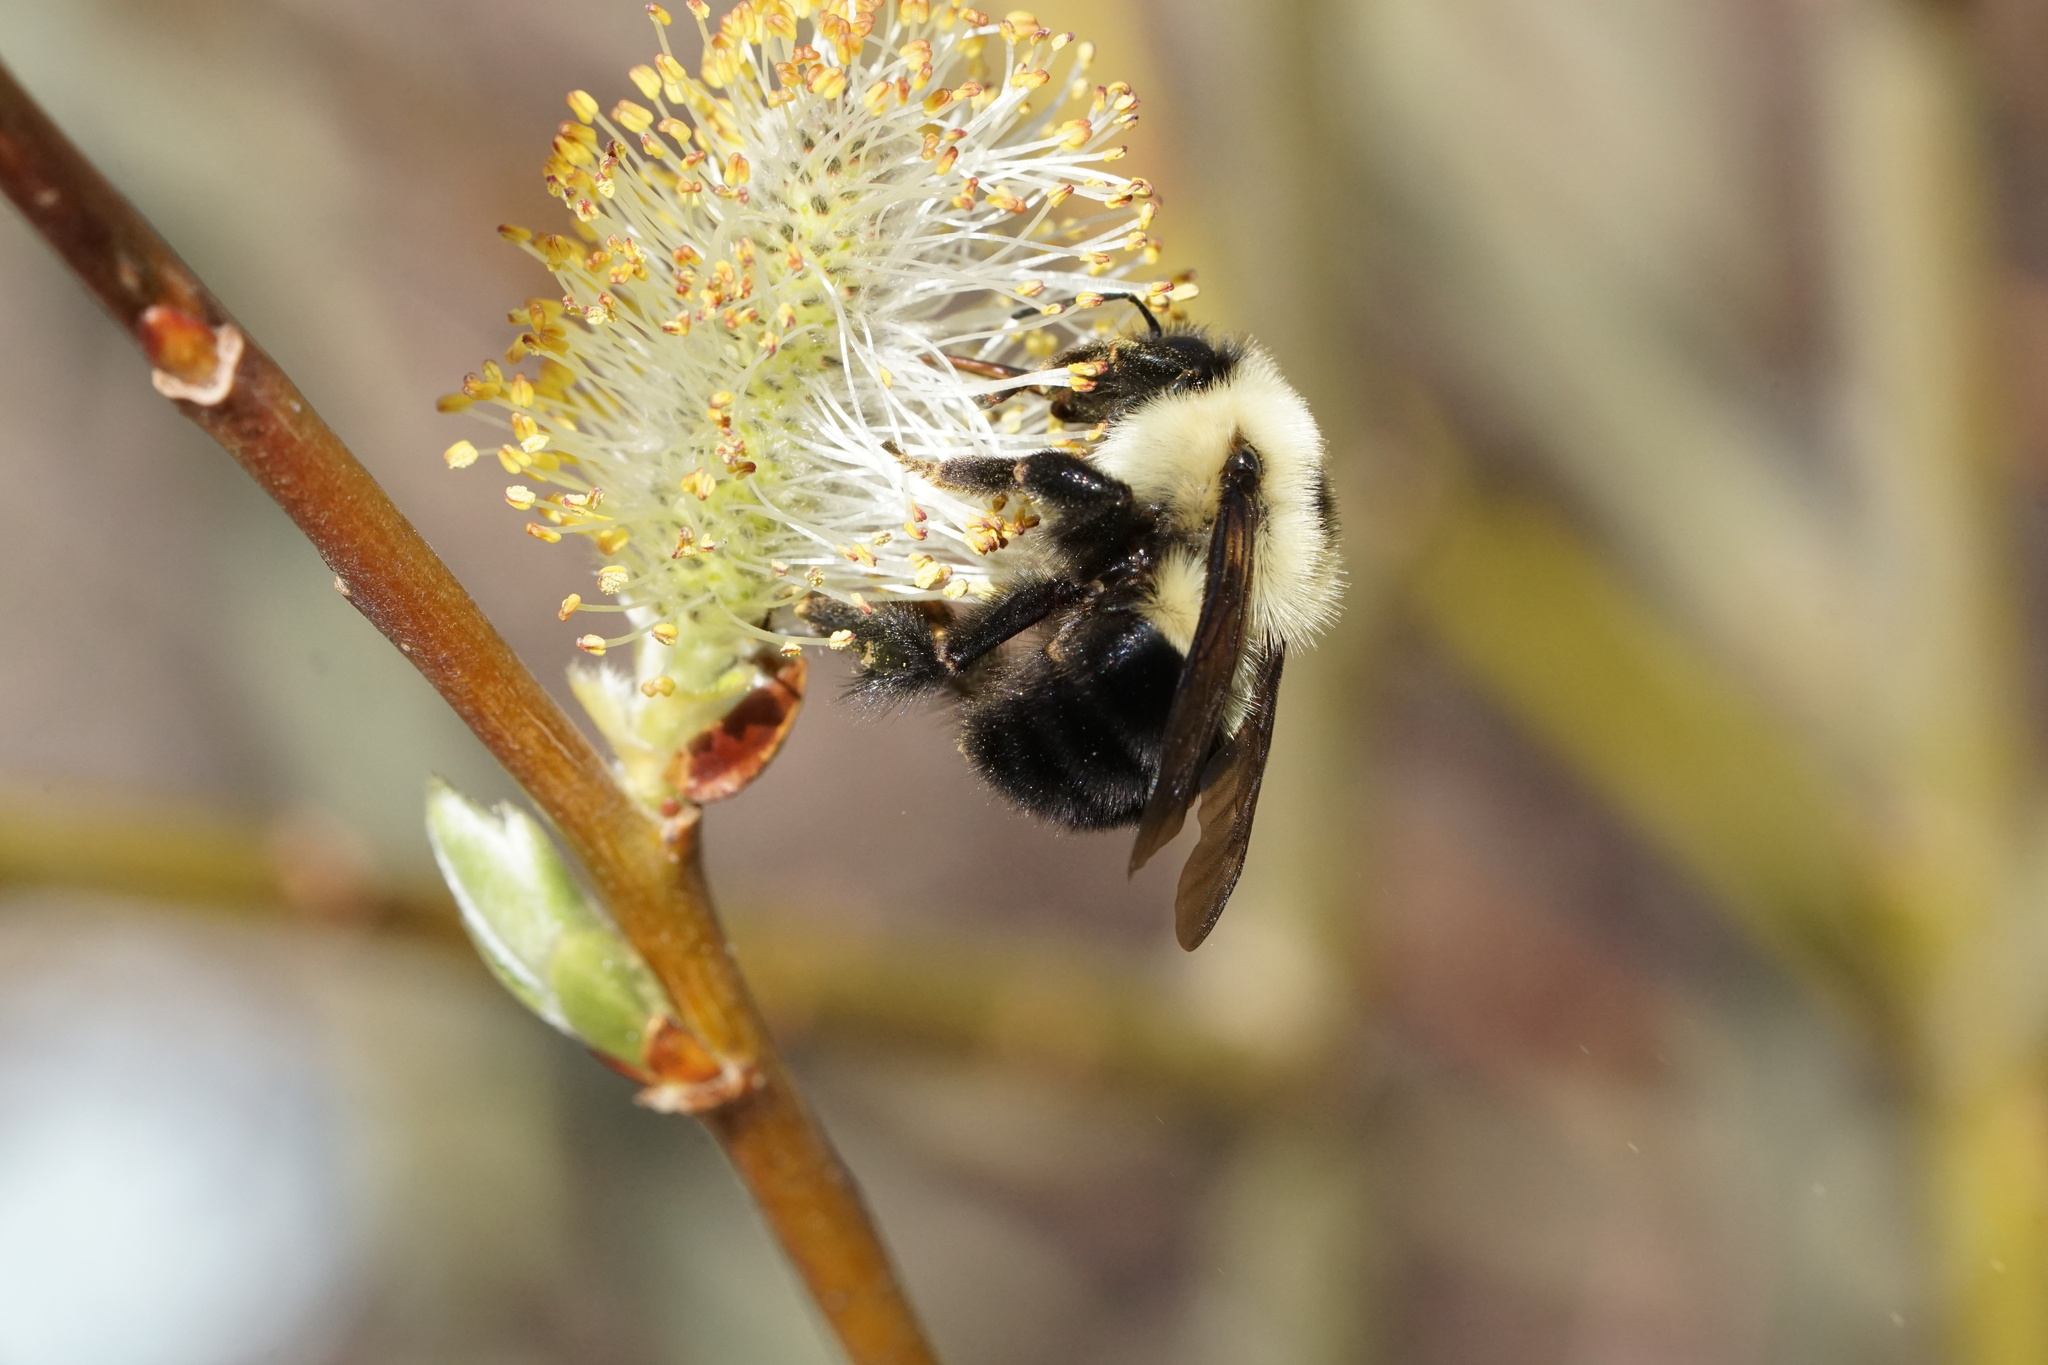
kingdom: Animalia
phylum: Arthropoda
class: Insecta
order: Hymenoptera
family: Apidae
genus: Bombus
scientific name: Bombus bimaculatus
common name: Two-spotted bumble bee
